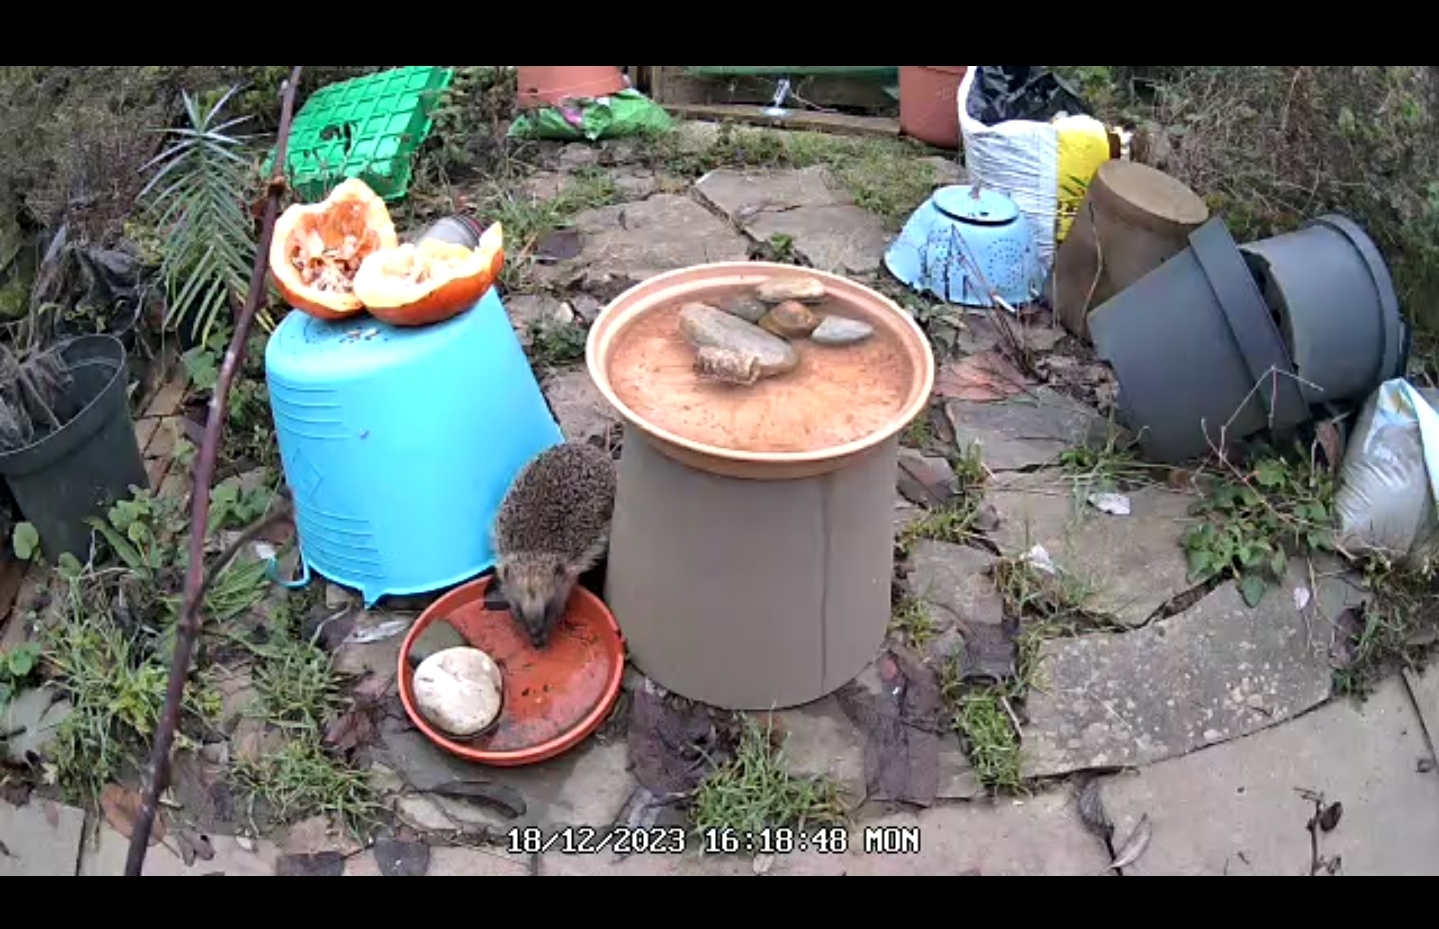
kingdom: Animalia
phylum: Chordata
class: Mammalia
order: Erinaceomorpha
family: Erinaceidae
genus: Erinaceus
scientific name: Erinaceus europaeus
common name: West european hedgehog
